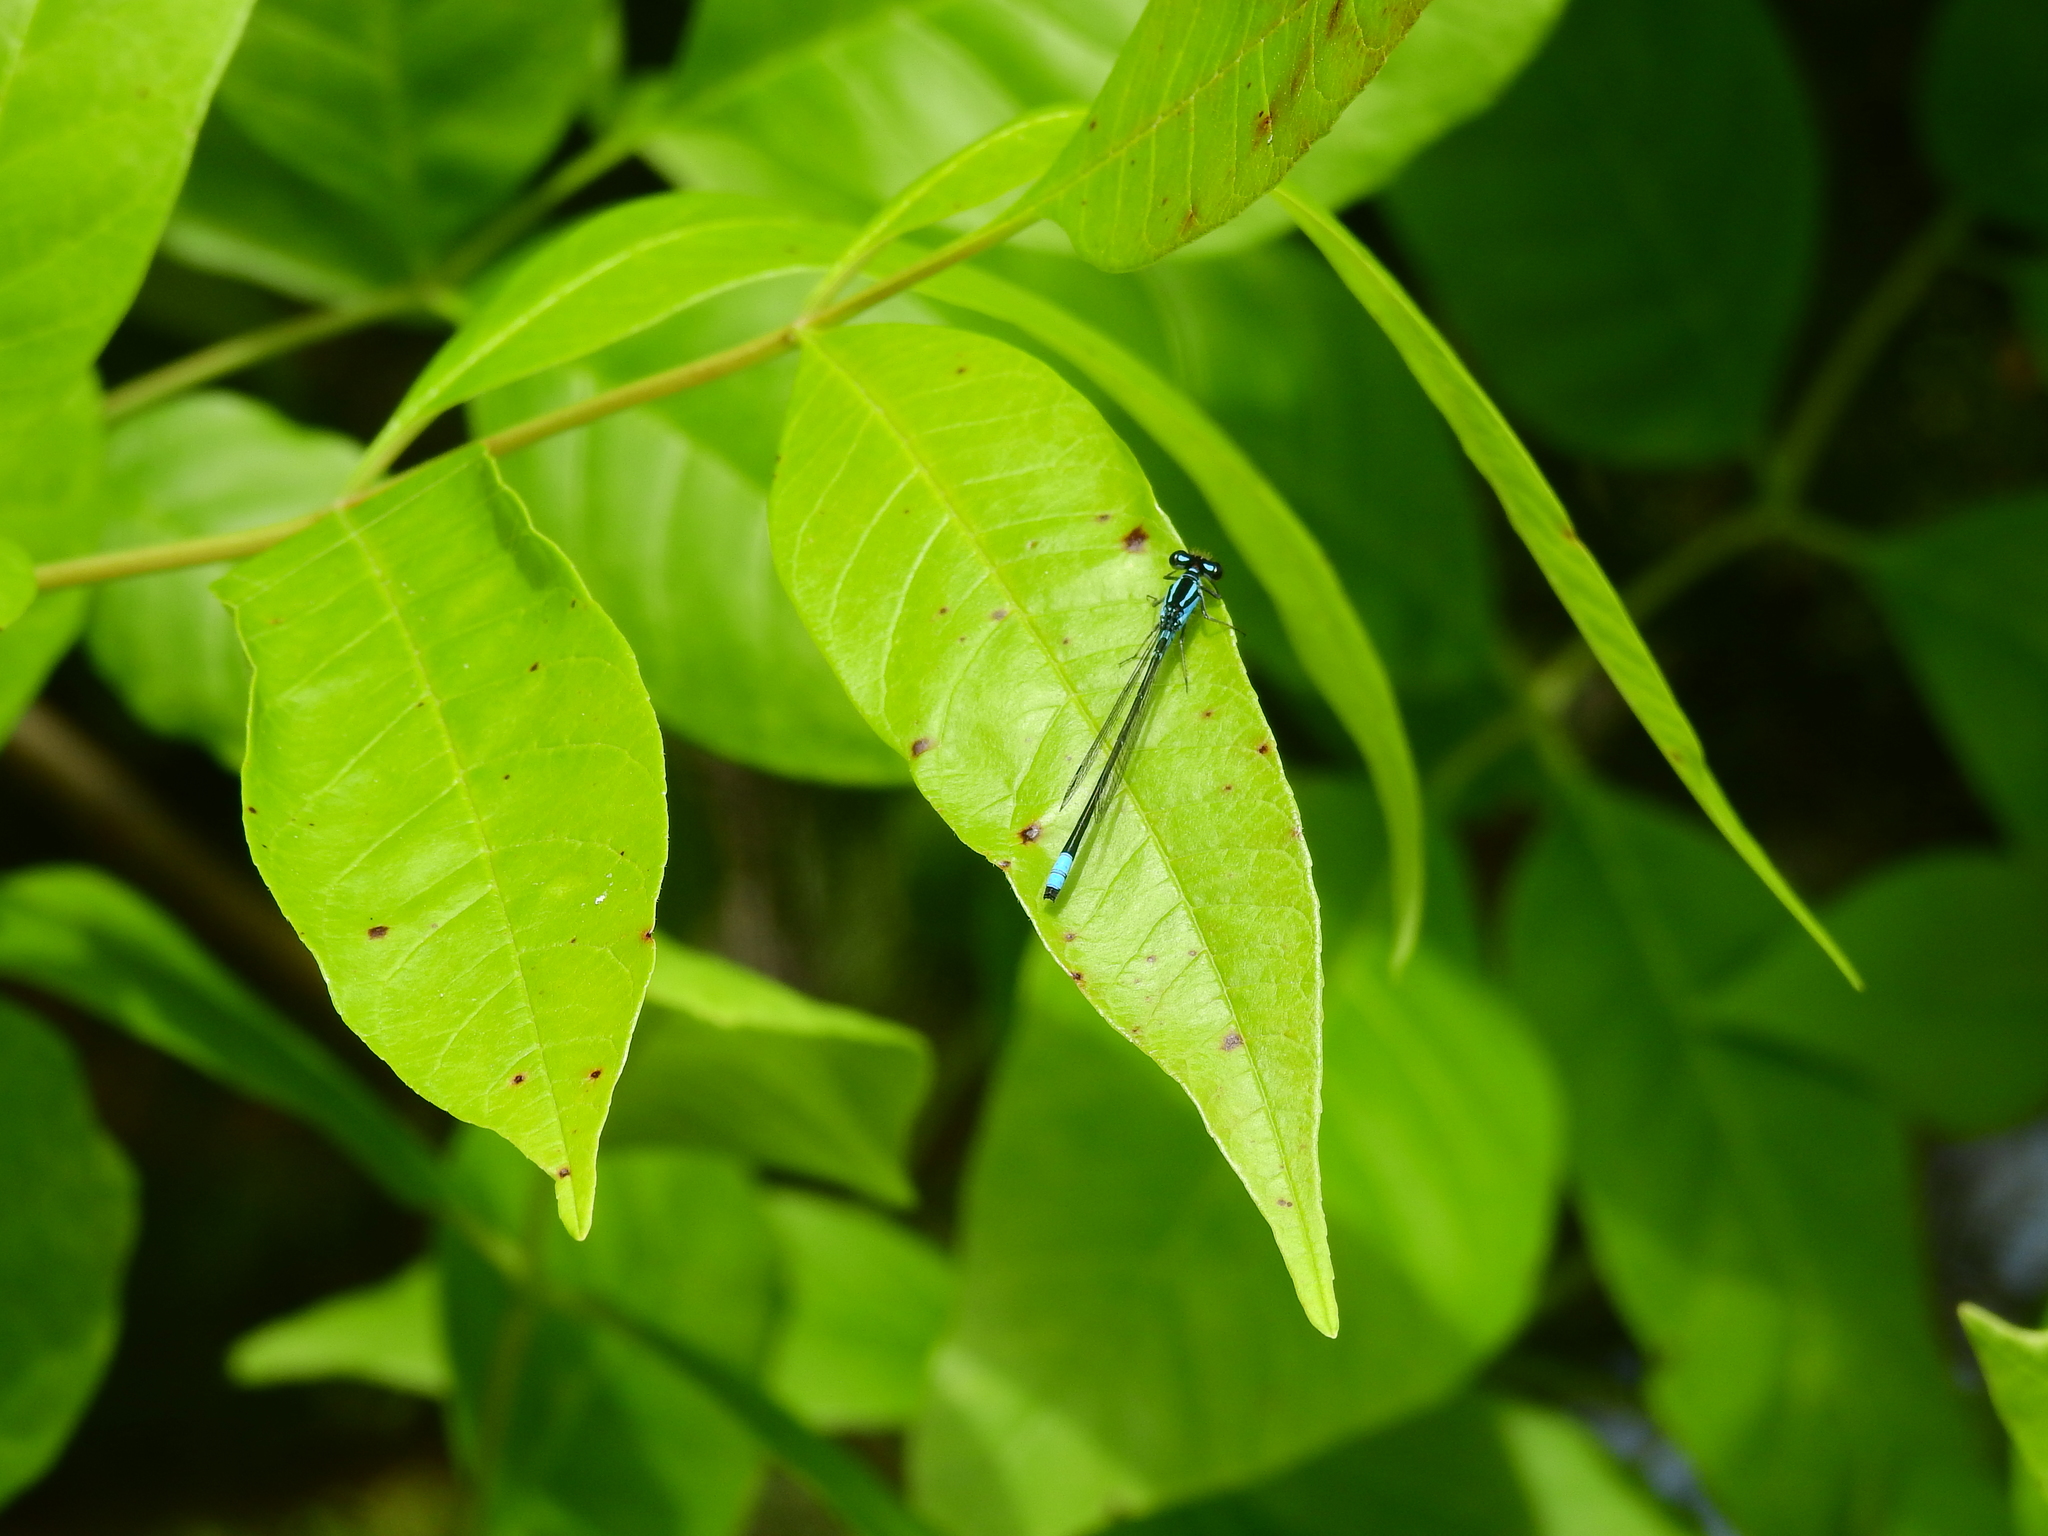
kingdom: Animalia
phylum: Arthropoda
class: Insecta
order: Odonata
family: Coenagrionidae
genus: Enallagma
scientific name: Enallagma geminatum
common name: Skimming bluet
